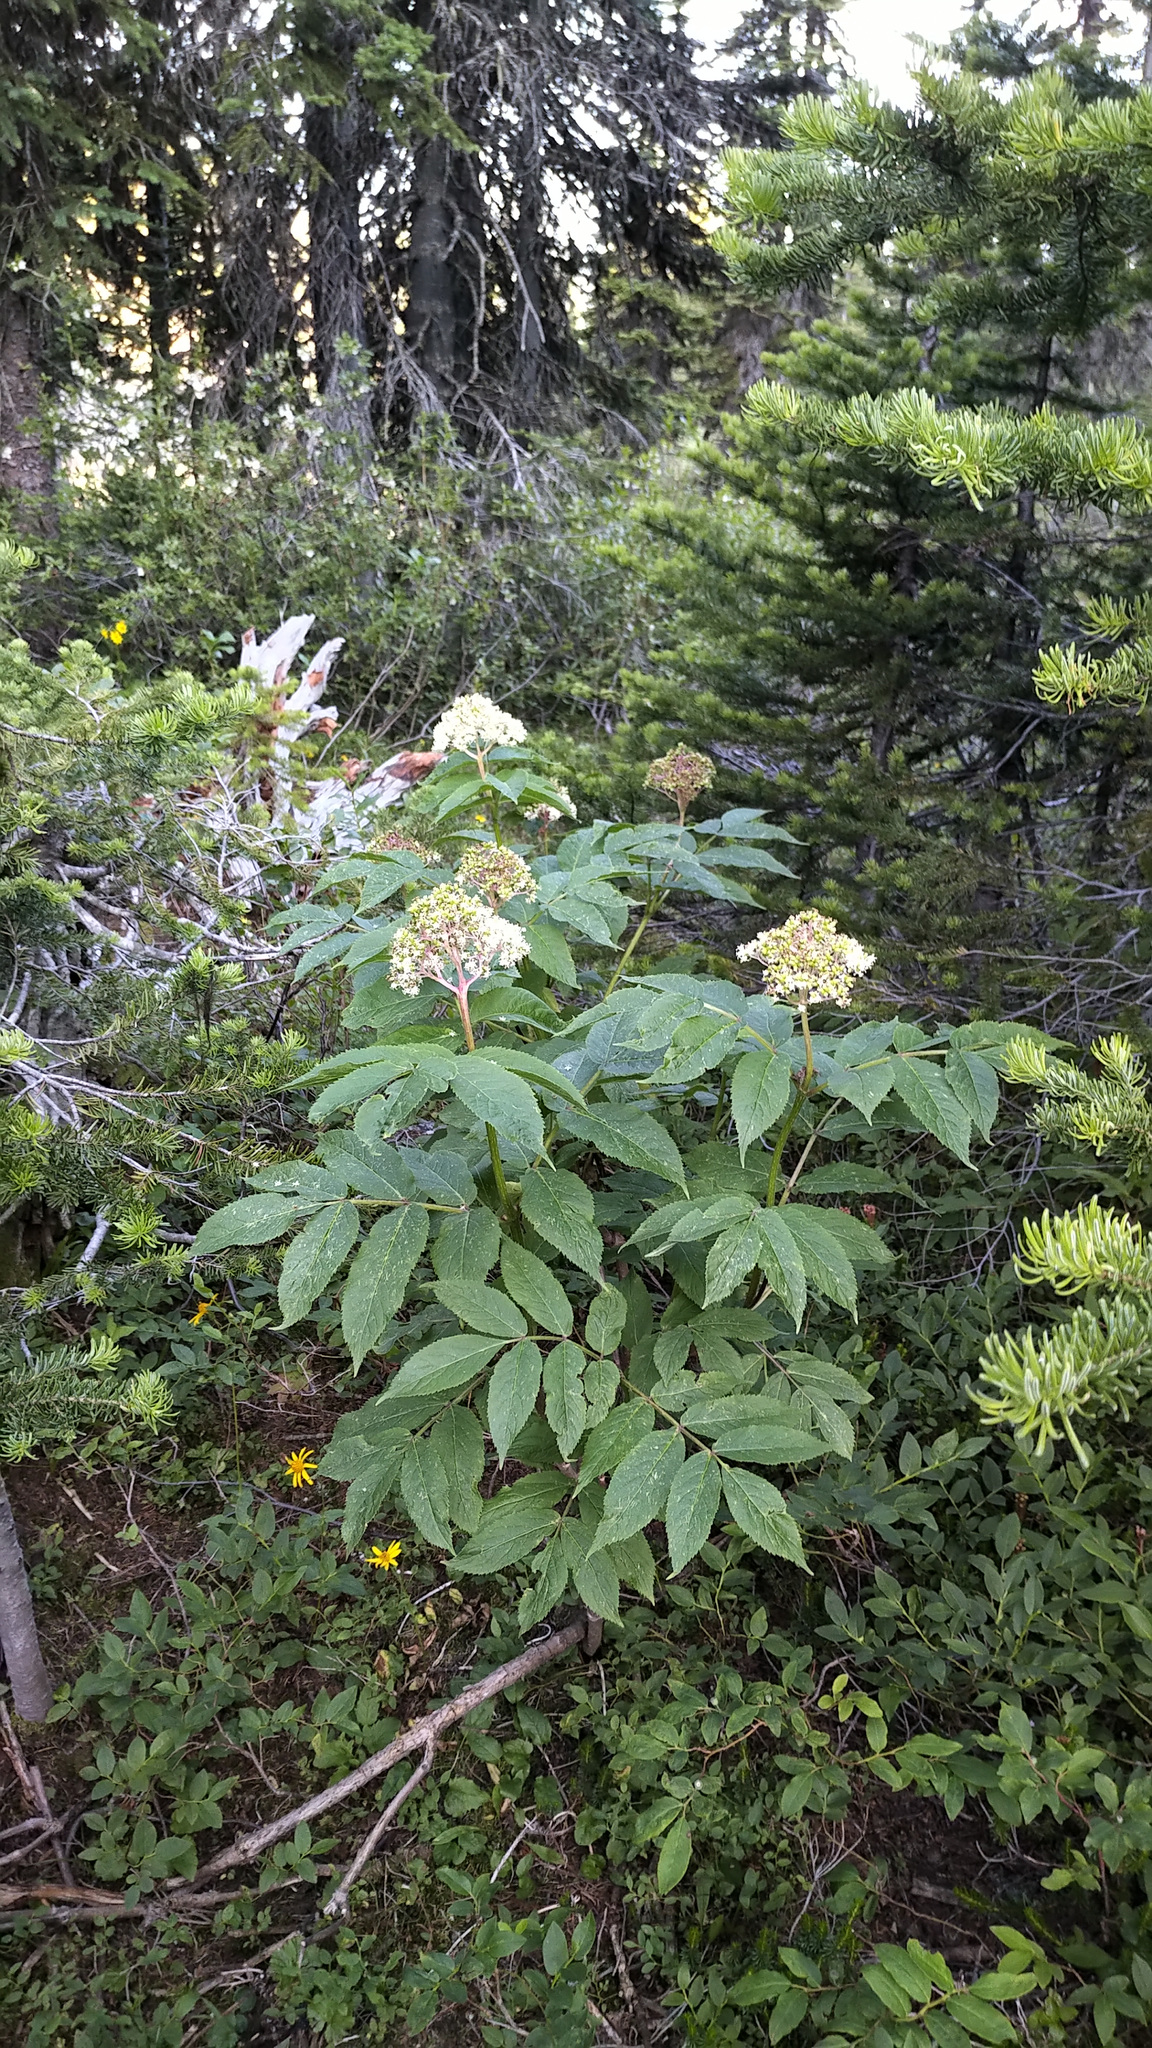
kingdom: Plantae
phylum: Tracheophyta
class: Magnoliopsida
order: Dipsacales
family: Viburnaceae
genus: Sambucus
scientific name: Sambucus racemosa
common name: Red-berried elder
